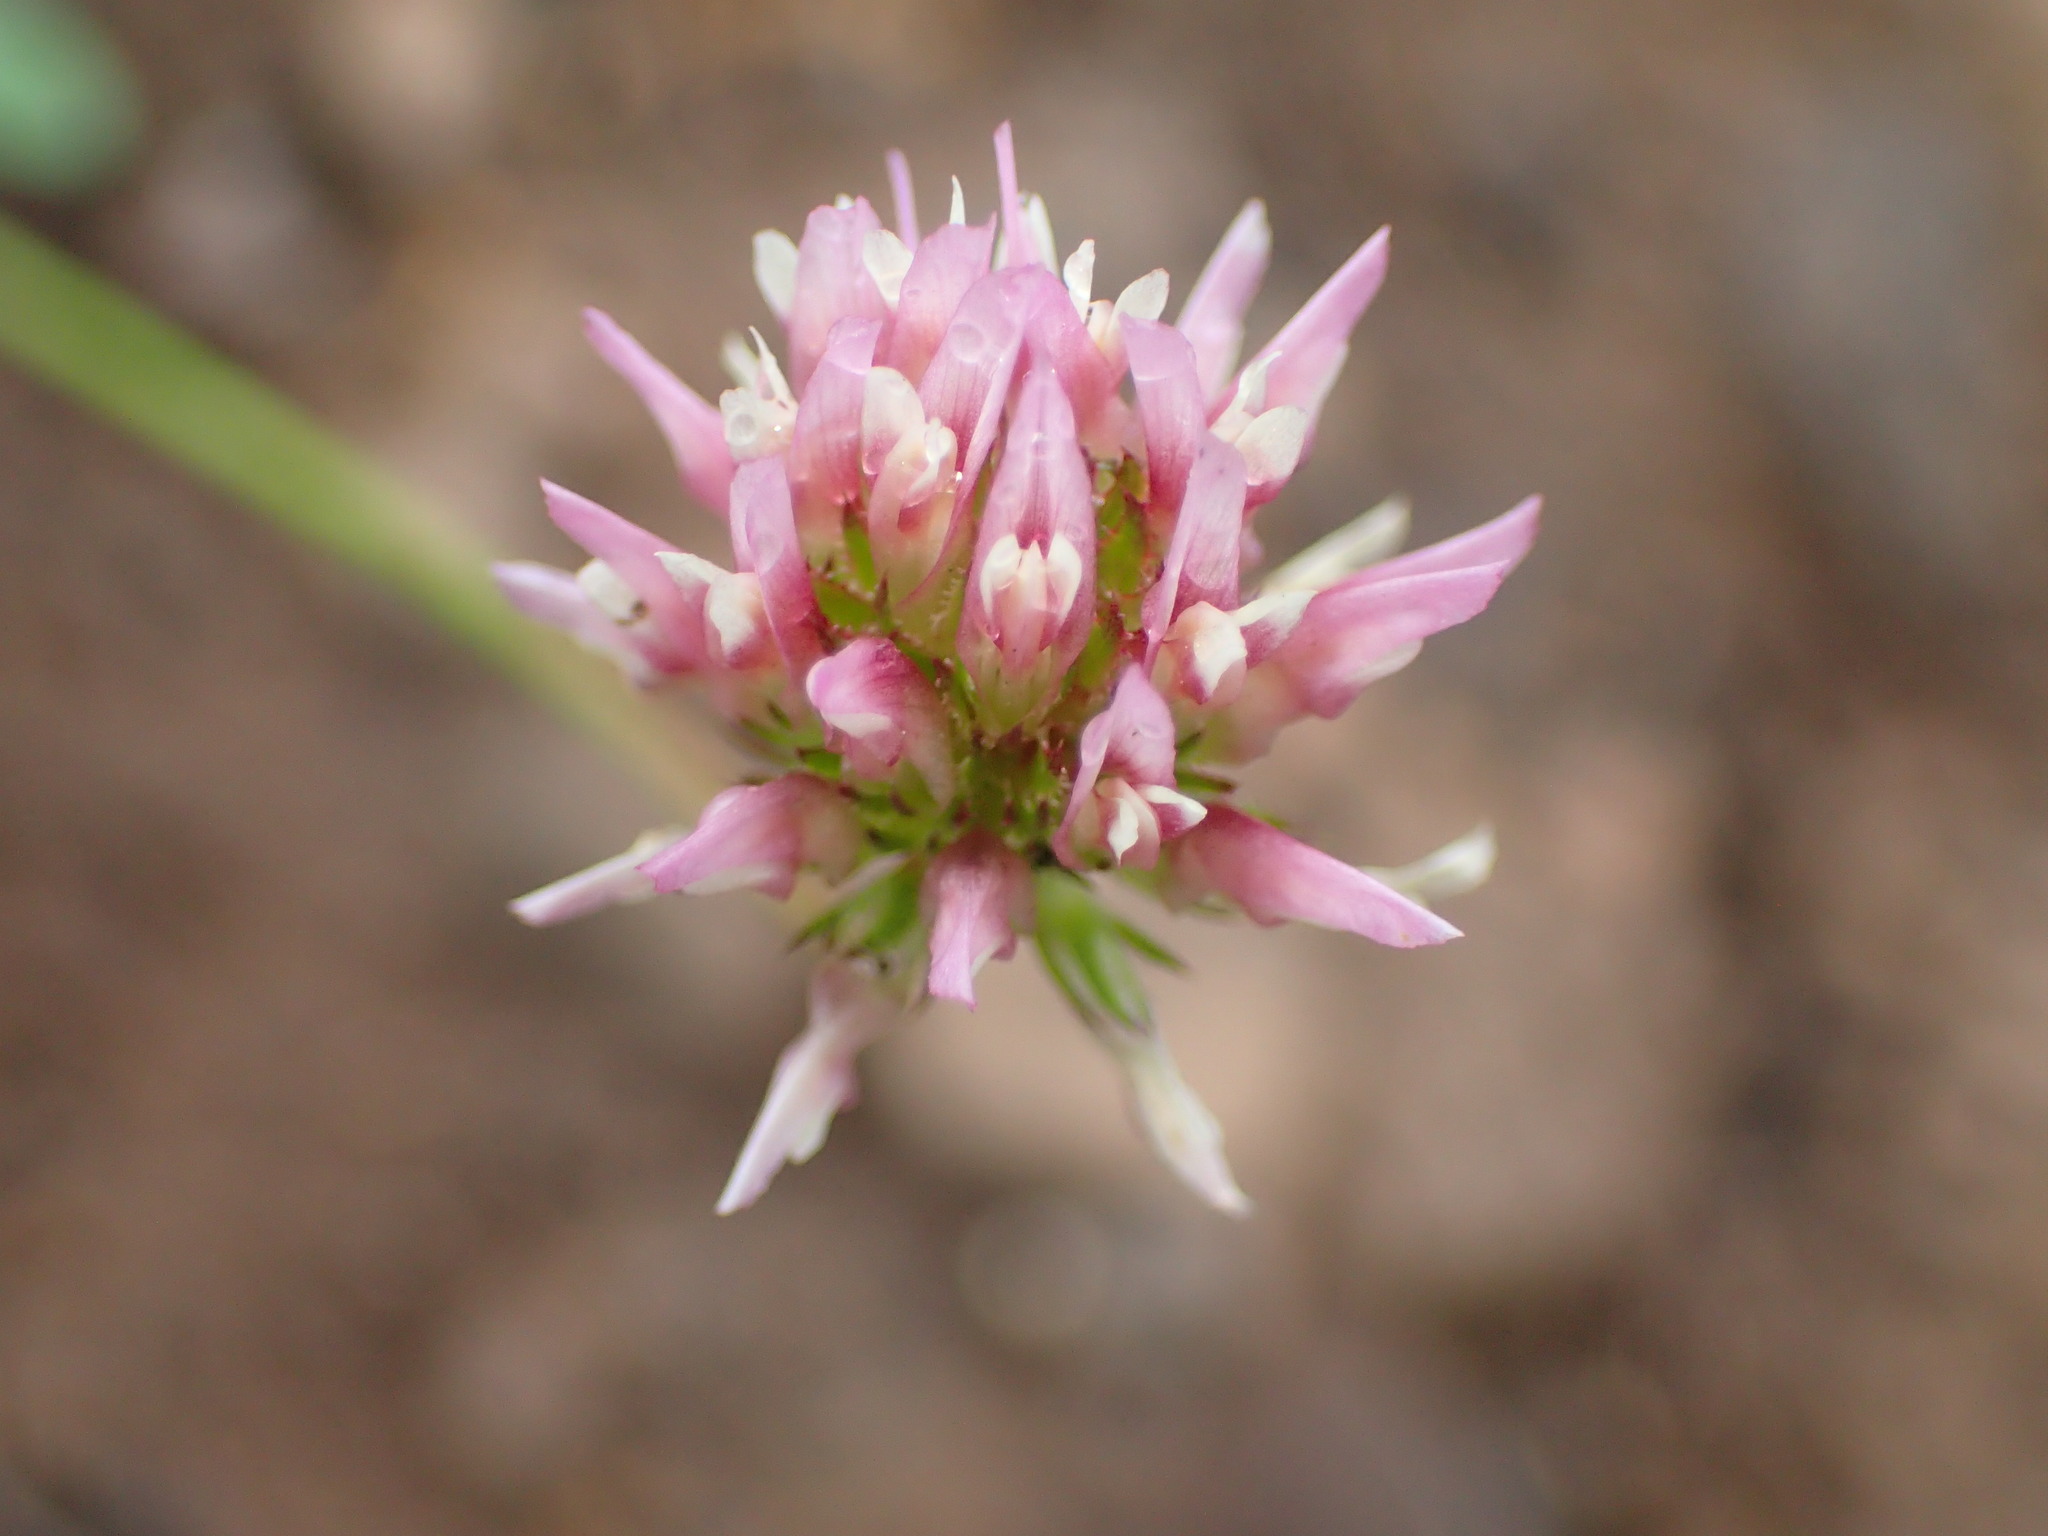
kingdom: Plantae
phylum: Tracheophyta
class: Magnoliopsida
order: Fabales
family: Fabaceae
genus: Trifolium
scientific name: Trifolium ciliolatum
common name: Foothill clover
